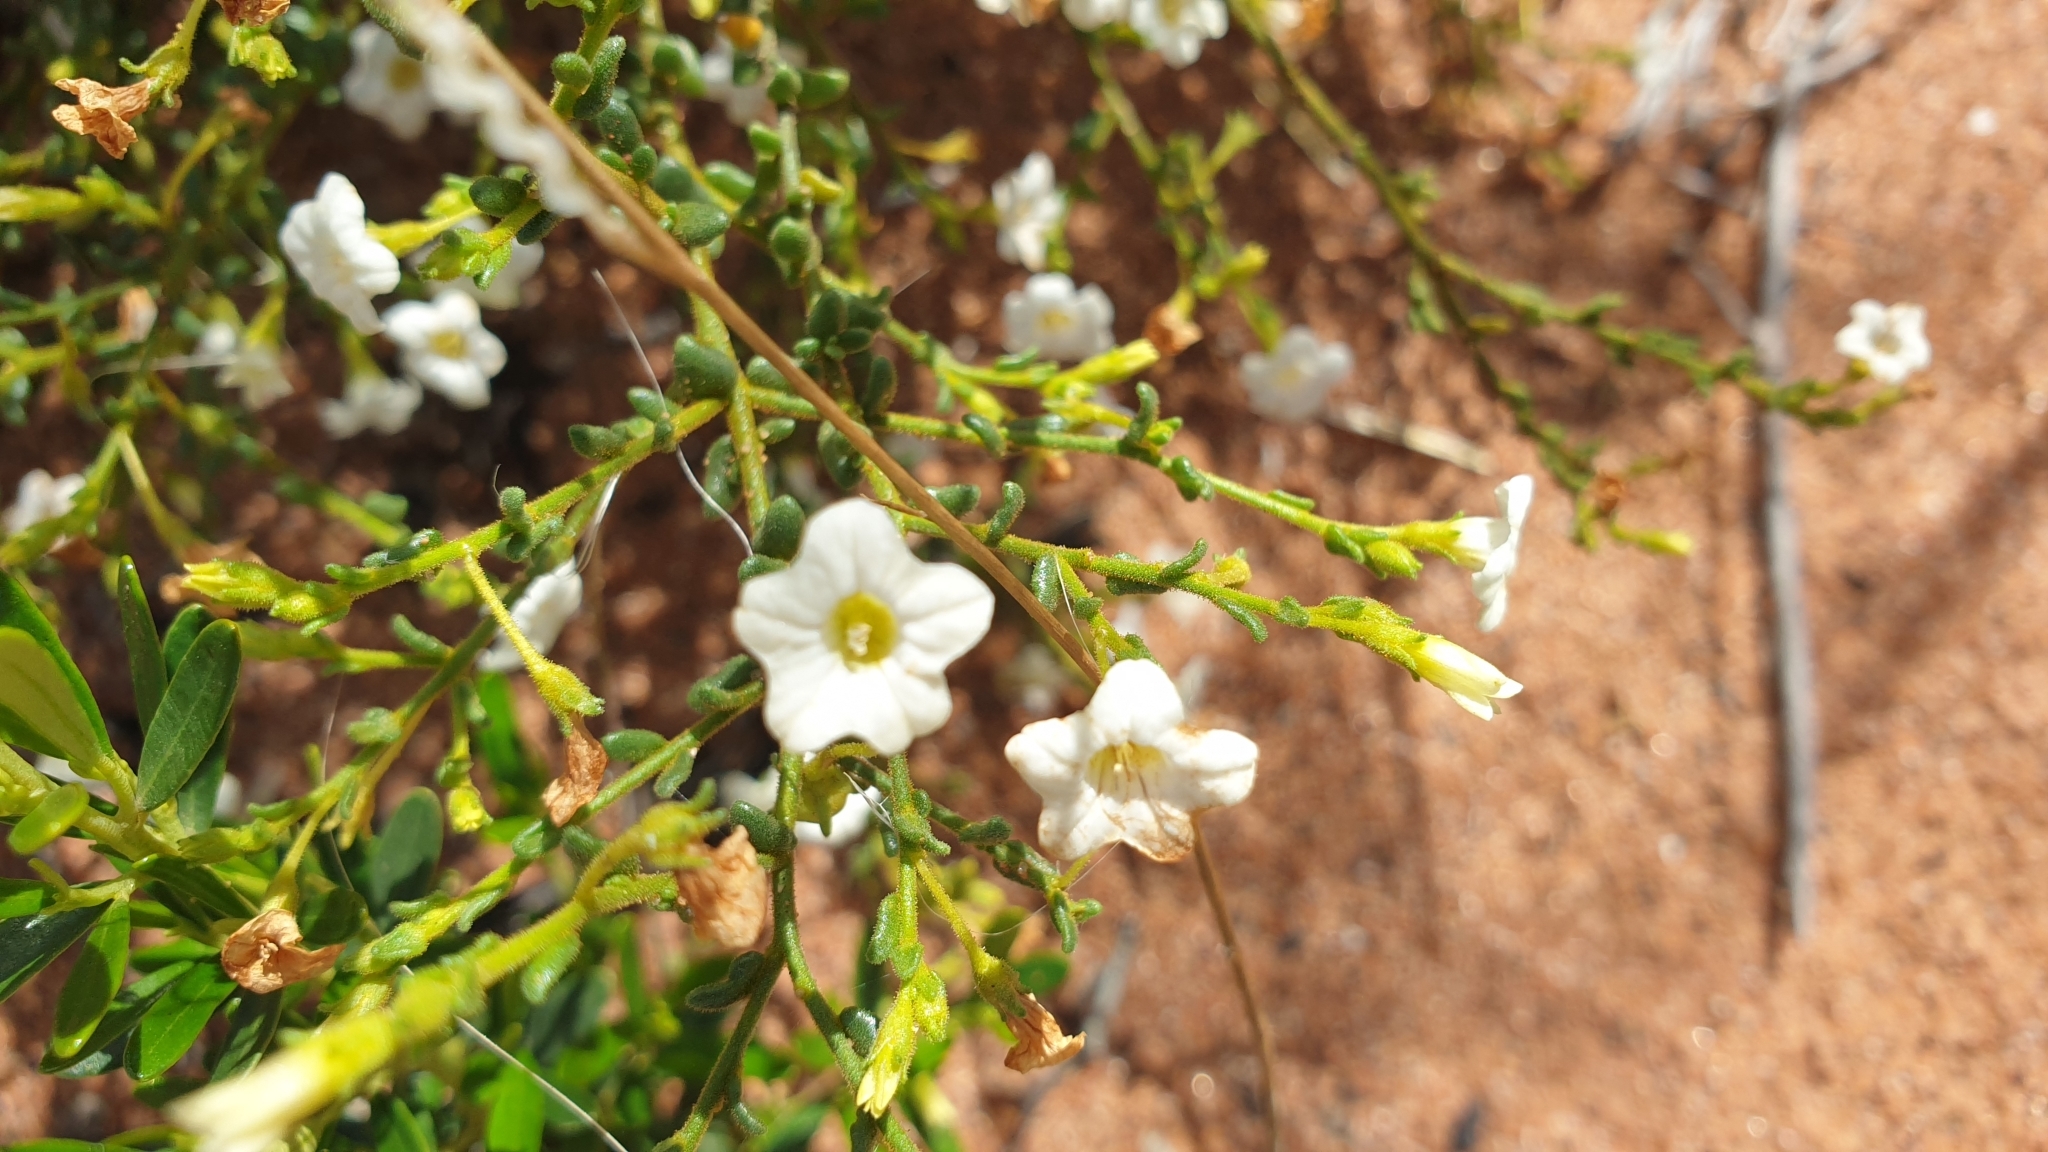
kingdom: Plantae
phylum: Tracheophyta
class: Magnoliopsida
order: Solanales
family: Solanaceae
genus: Cyphanthera
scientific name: Cyphanthera myosotidea
